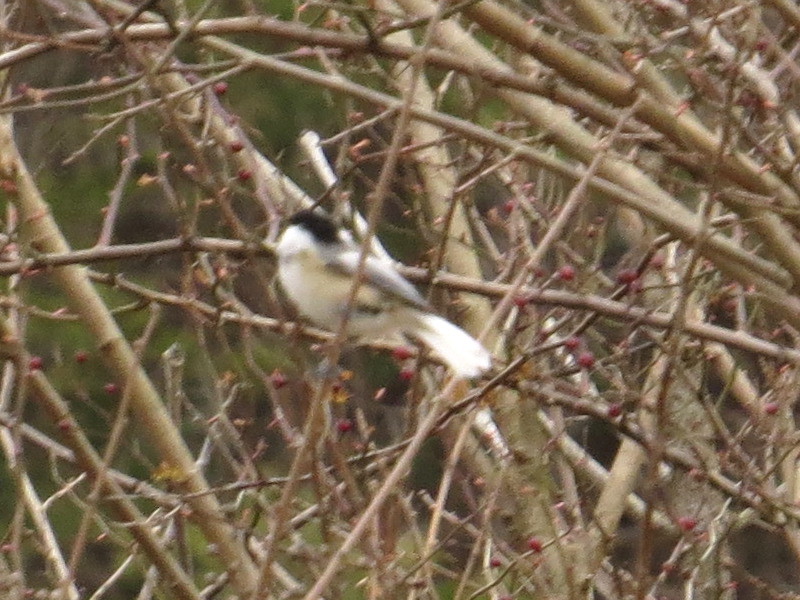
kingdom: Animalia
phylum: Chordata
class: Aves
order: Passeriformes
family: Paridae
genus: Poecile
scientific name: Poecile atricapillus
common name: Black-capped chickadee
